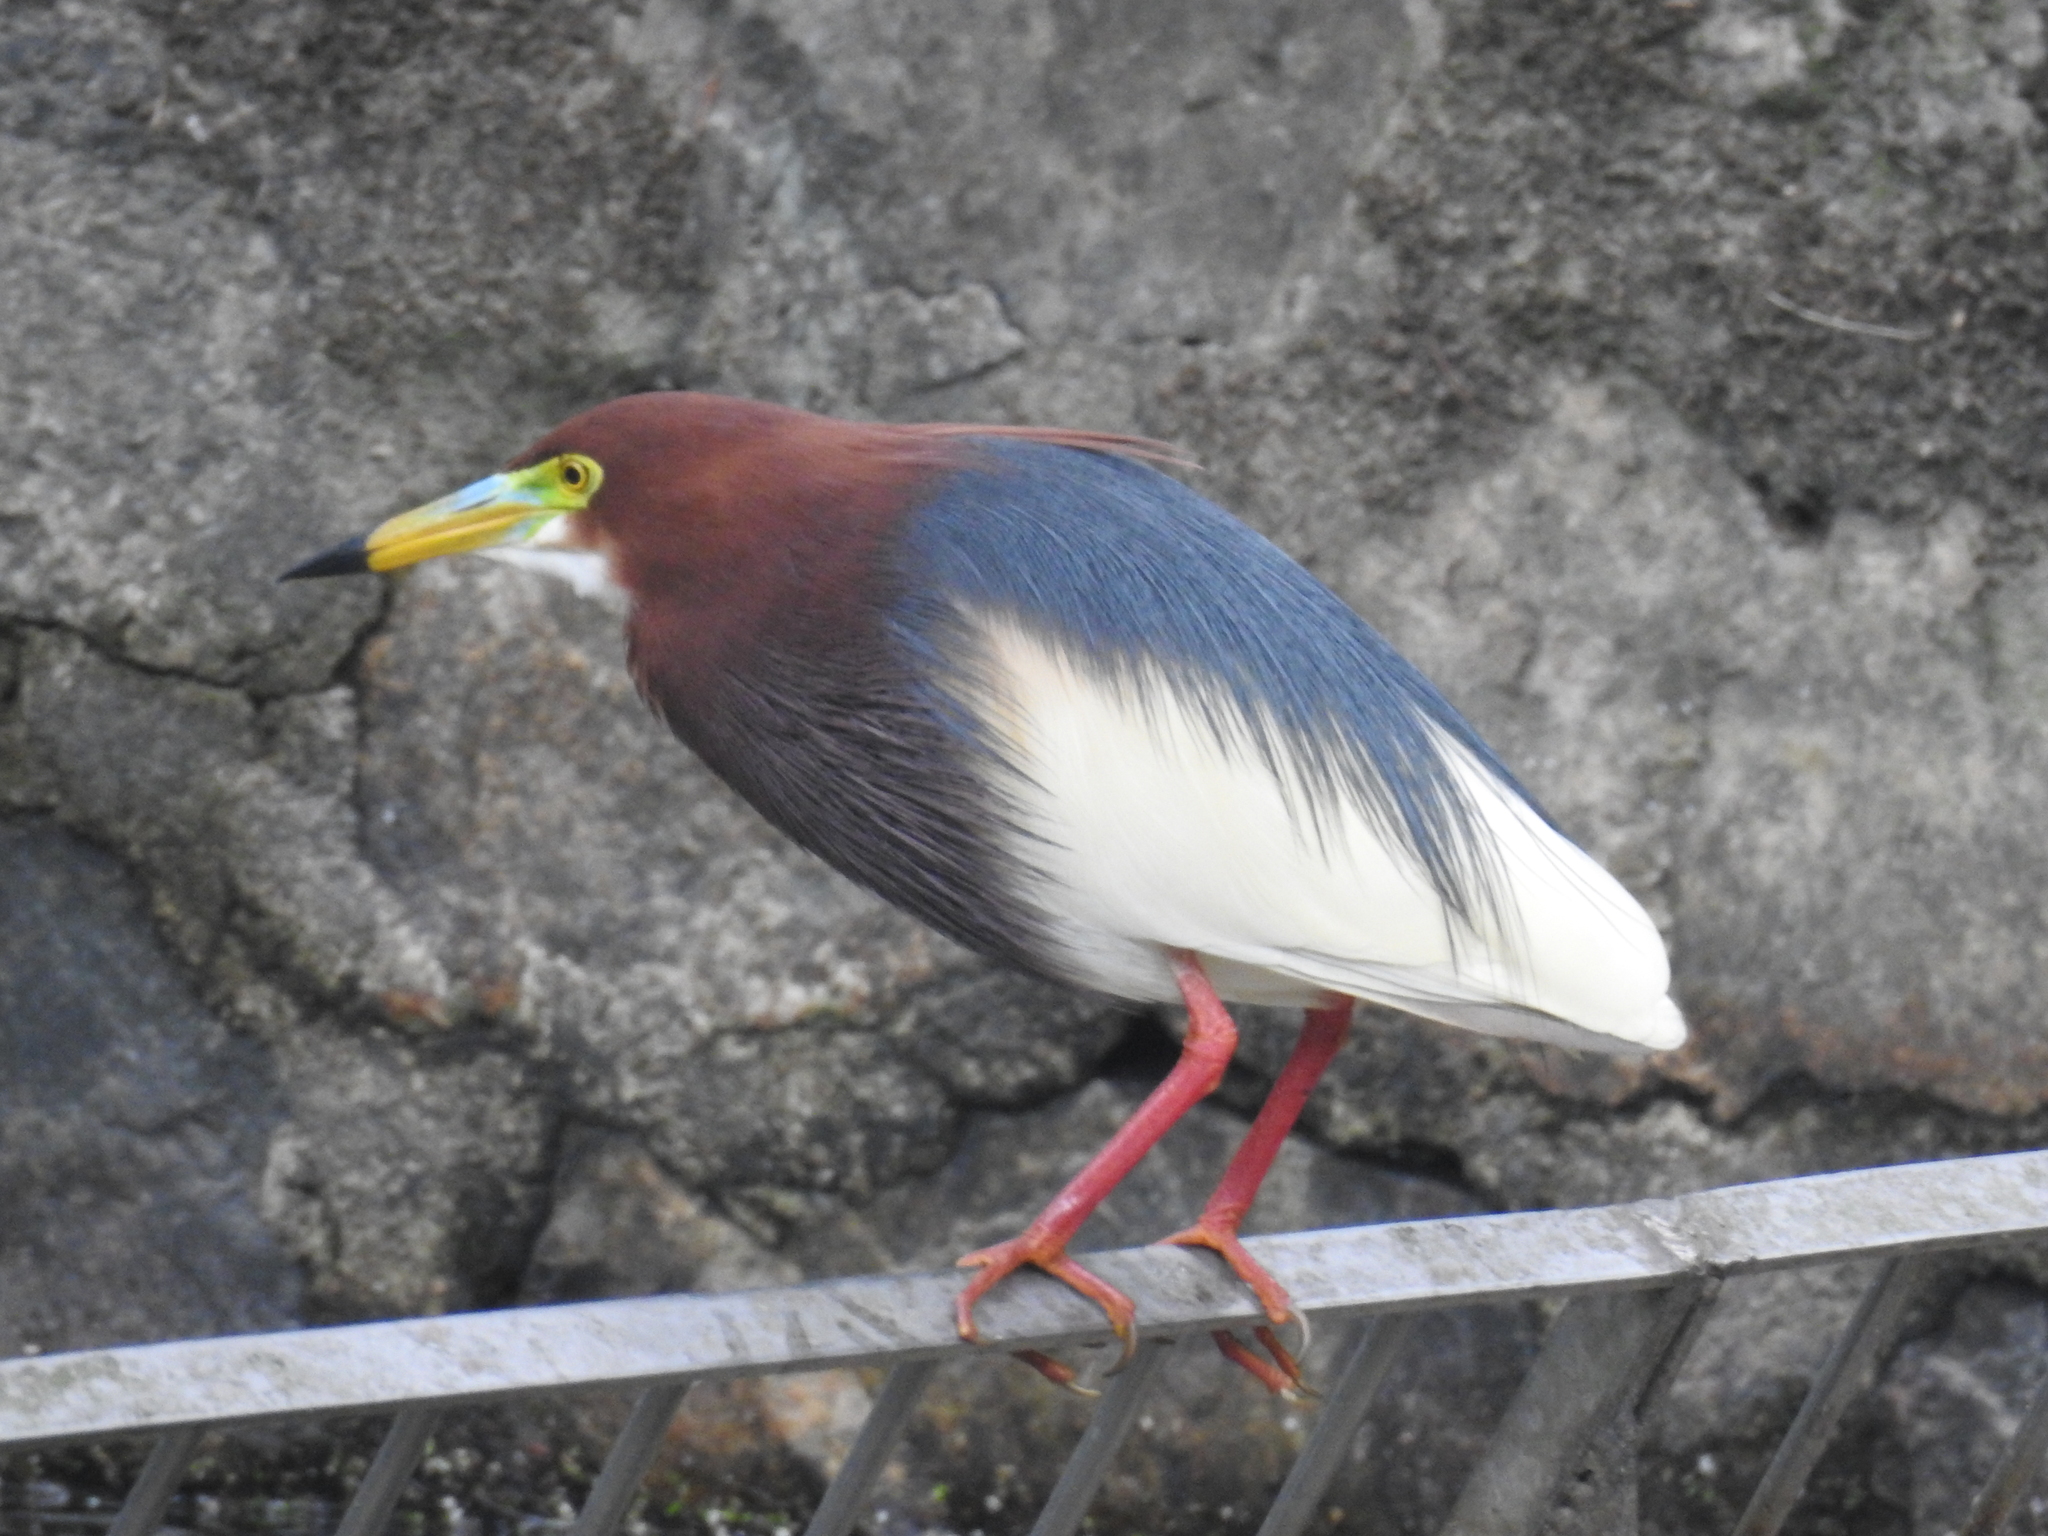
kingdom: Animalia
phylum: Chordata
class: Aves
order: Pelecaniformes
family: Ardeidae
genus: Ardeola
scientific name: Ardeola bacchus
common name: Chinese pond heron
